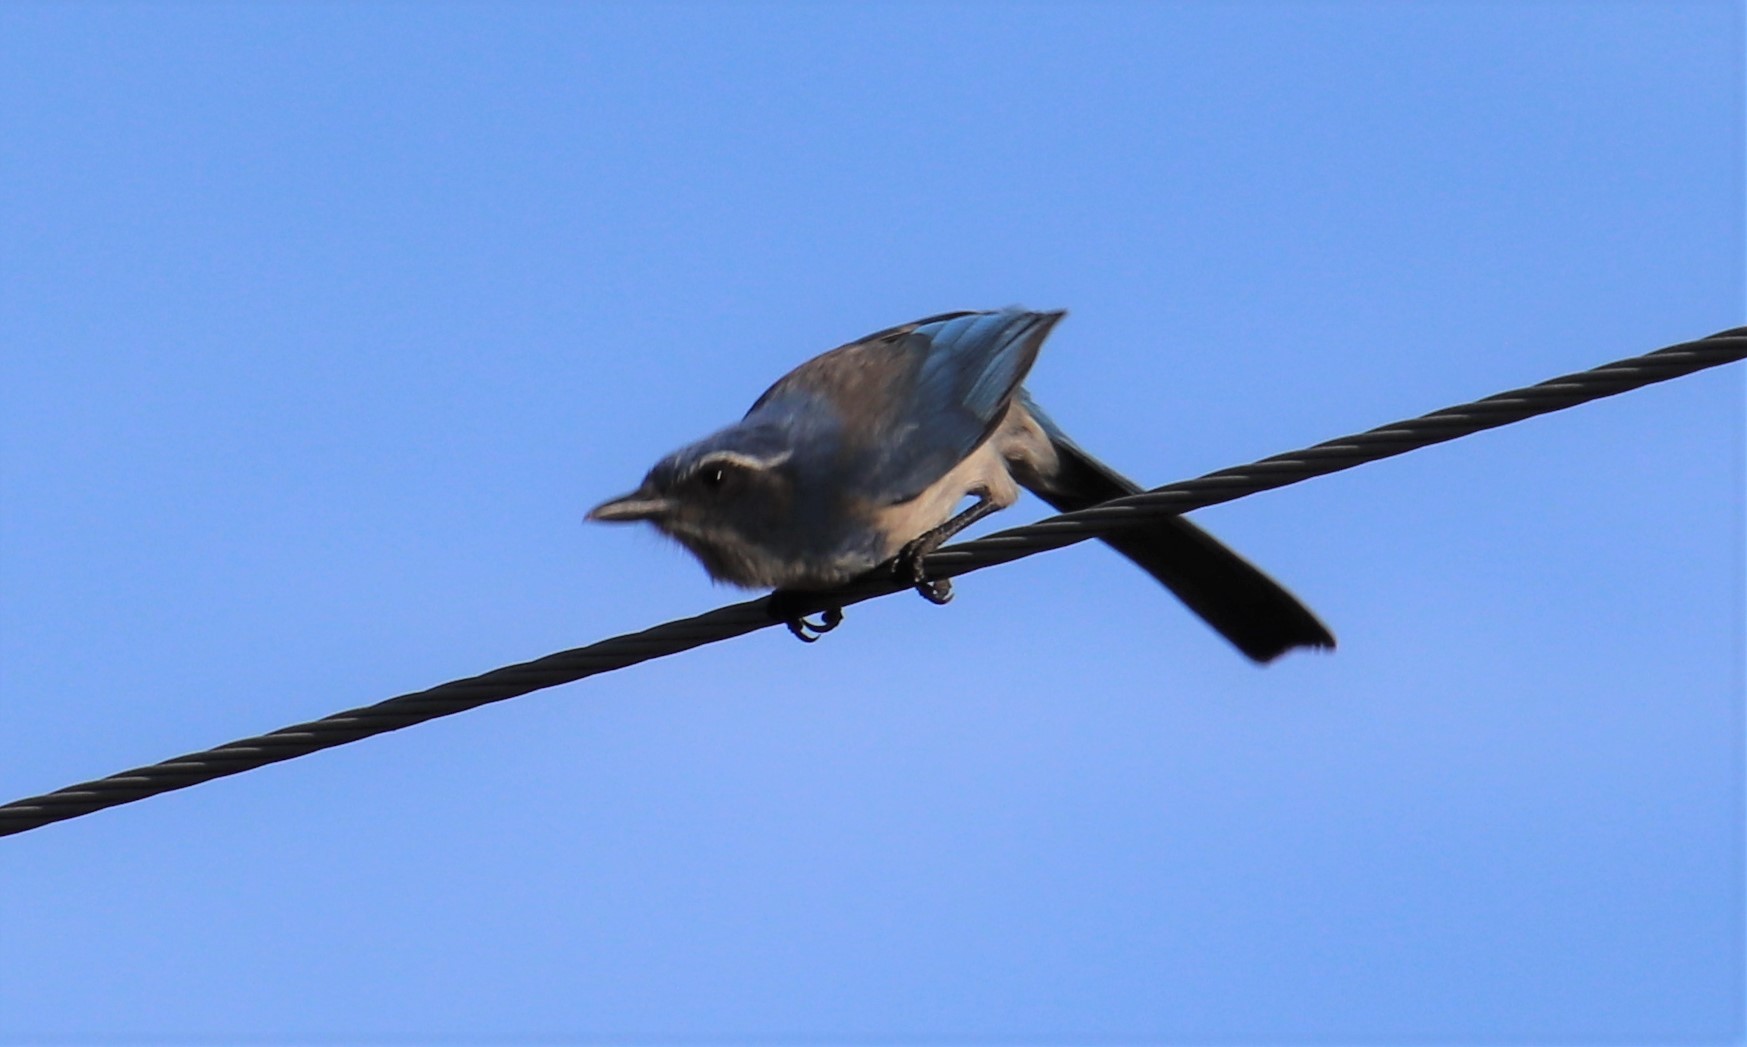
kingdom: Animalia
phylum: Chordata
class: Aves
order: Passeriformes
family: Corvidae
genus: Aphelocoma
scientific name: Aphelocoma californica
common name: California scrub-jay
